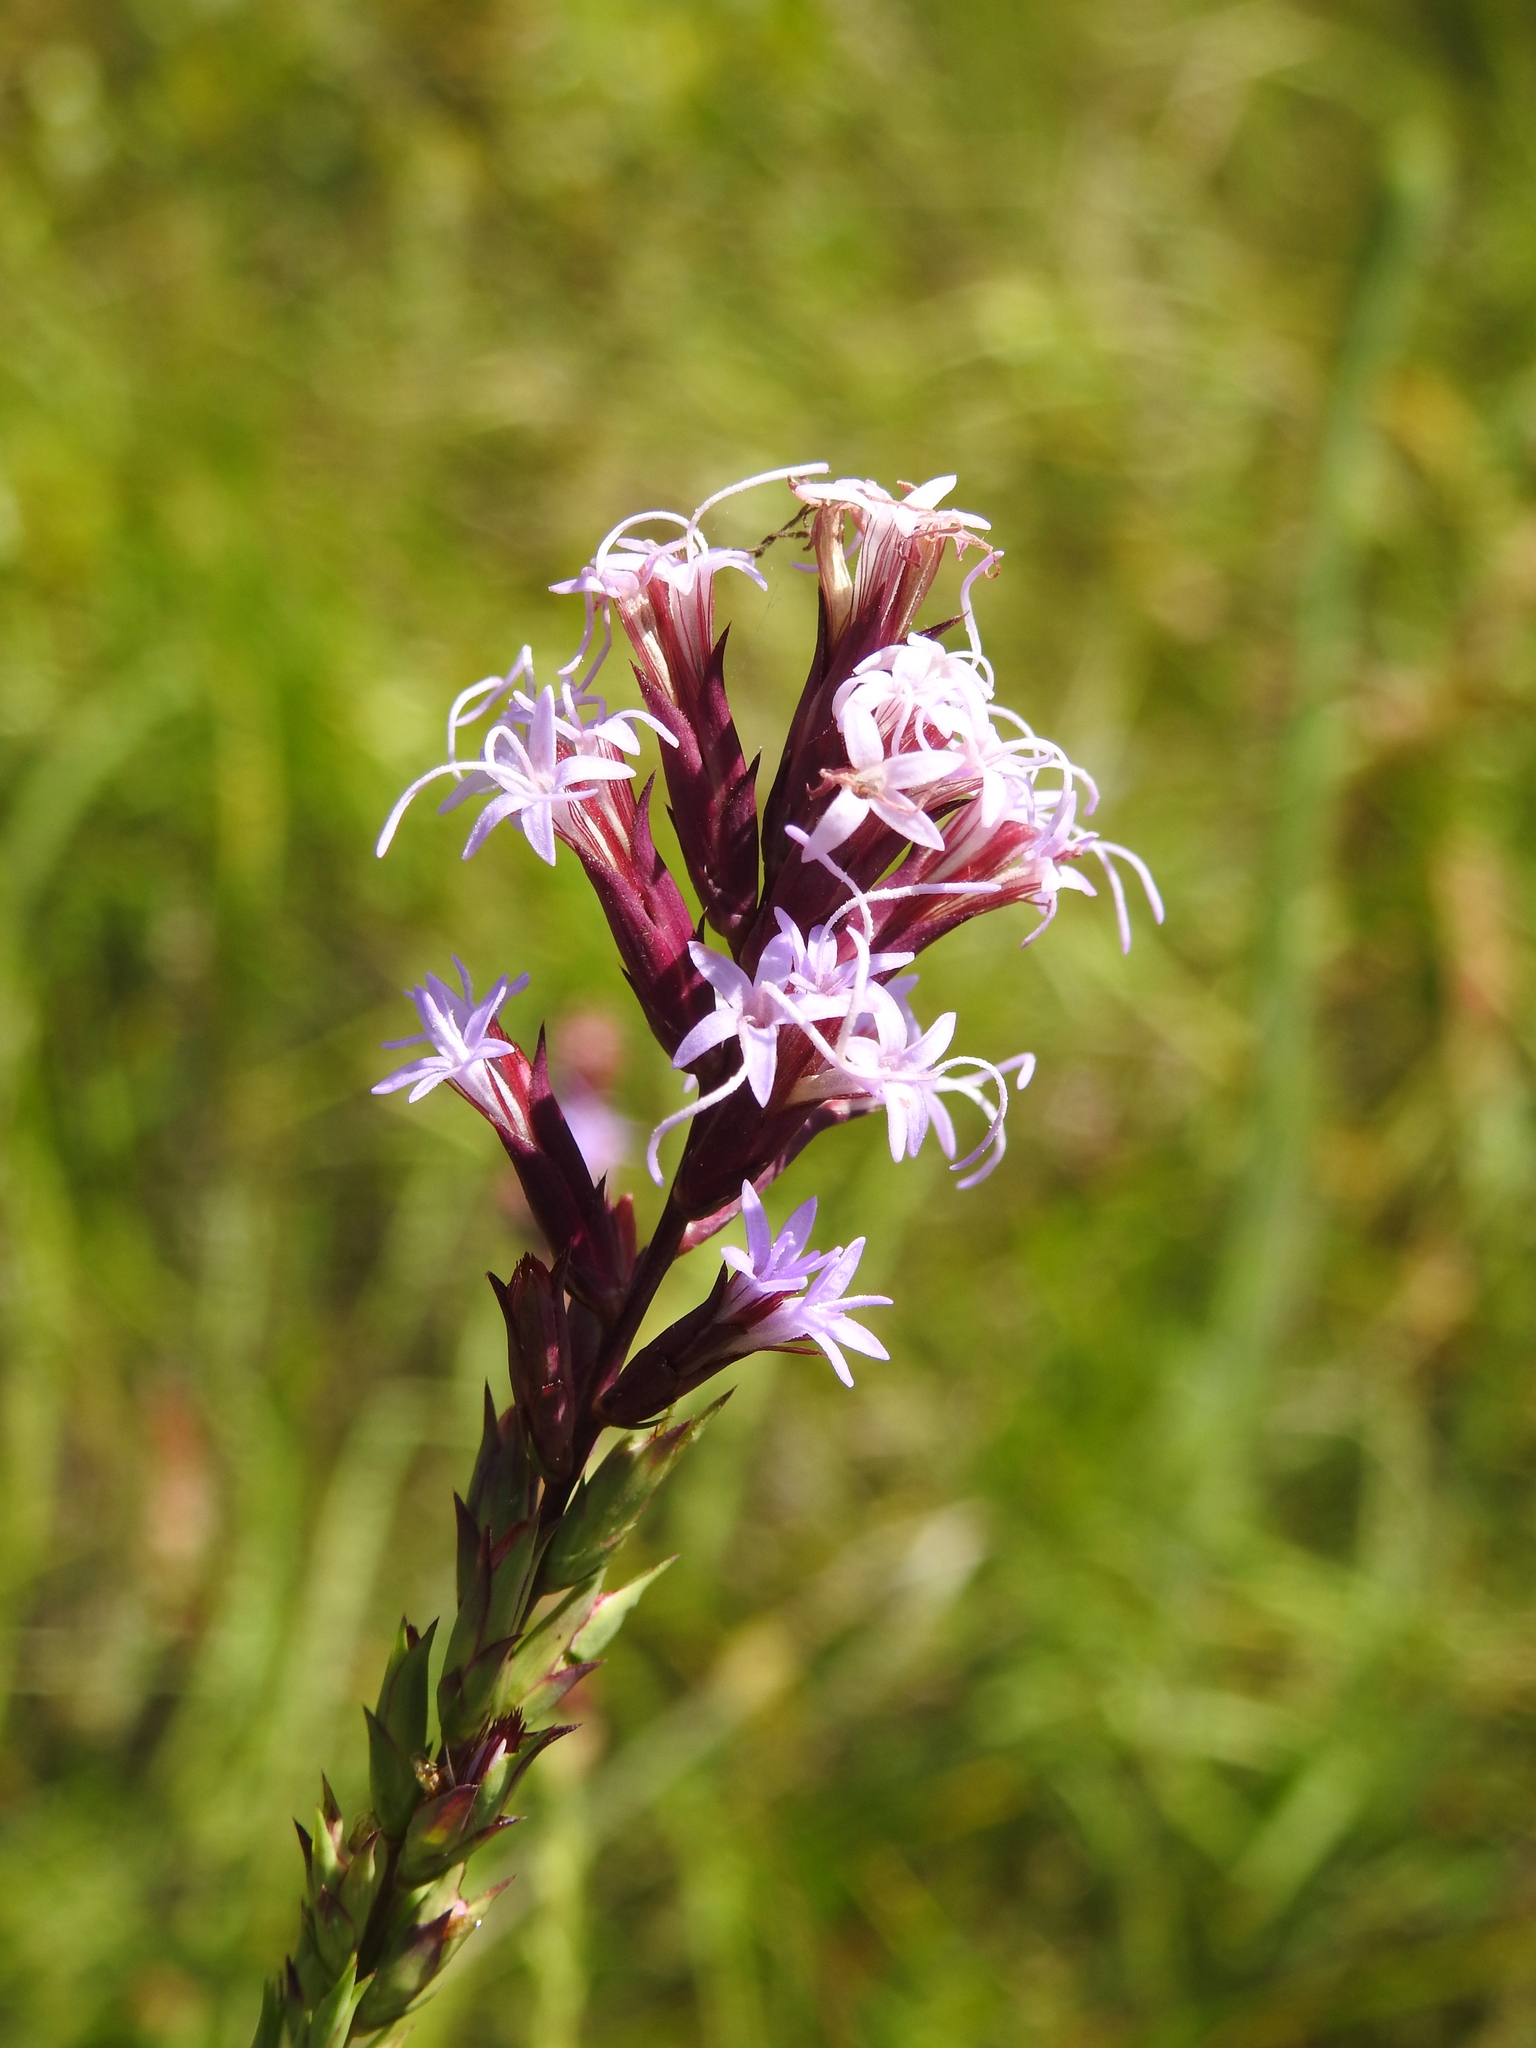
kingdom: Plantae
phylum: Tracheophyta
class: Magnoliopsida
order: Asterales
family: Asteraceae
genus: Liatris
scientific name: Liatris acidota
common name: Gulf coast gayfeather
